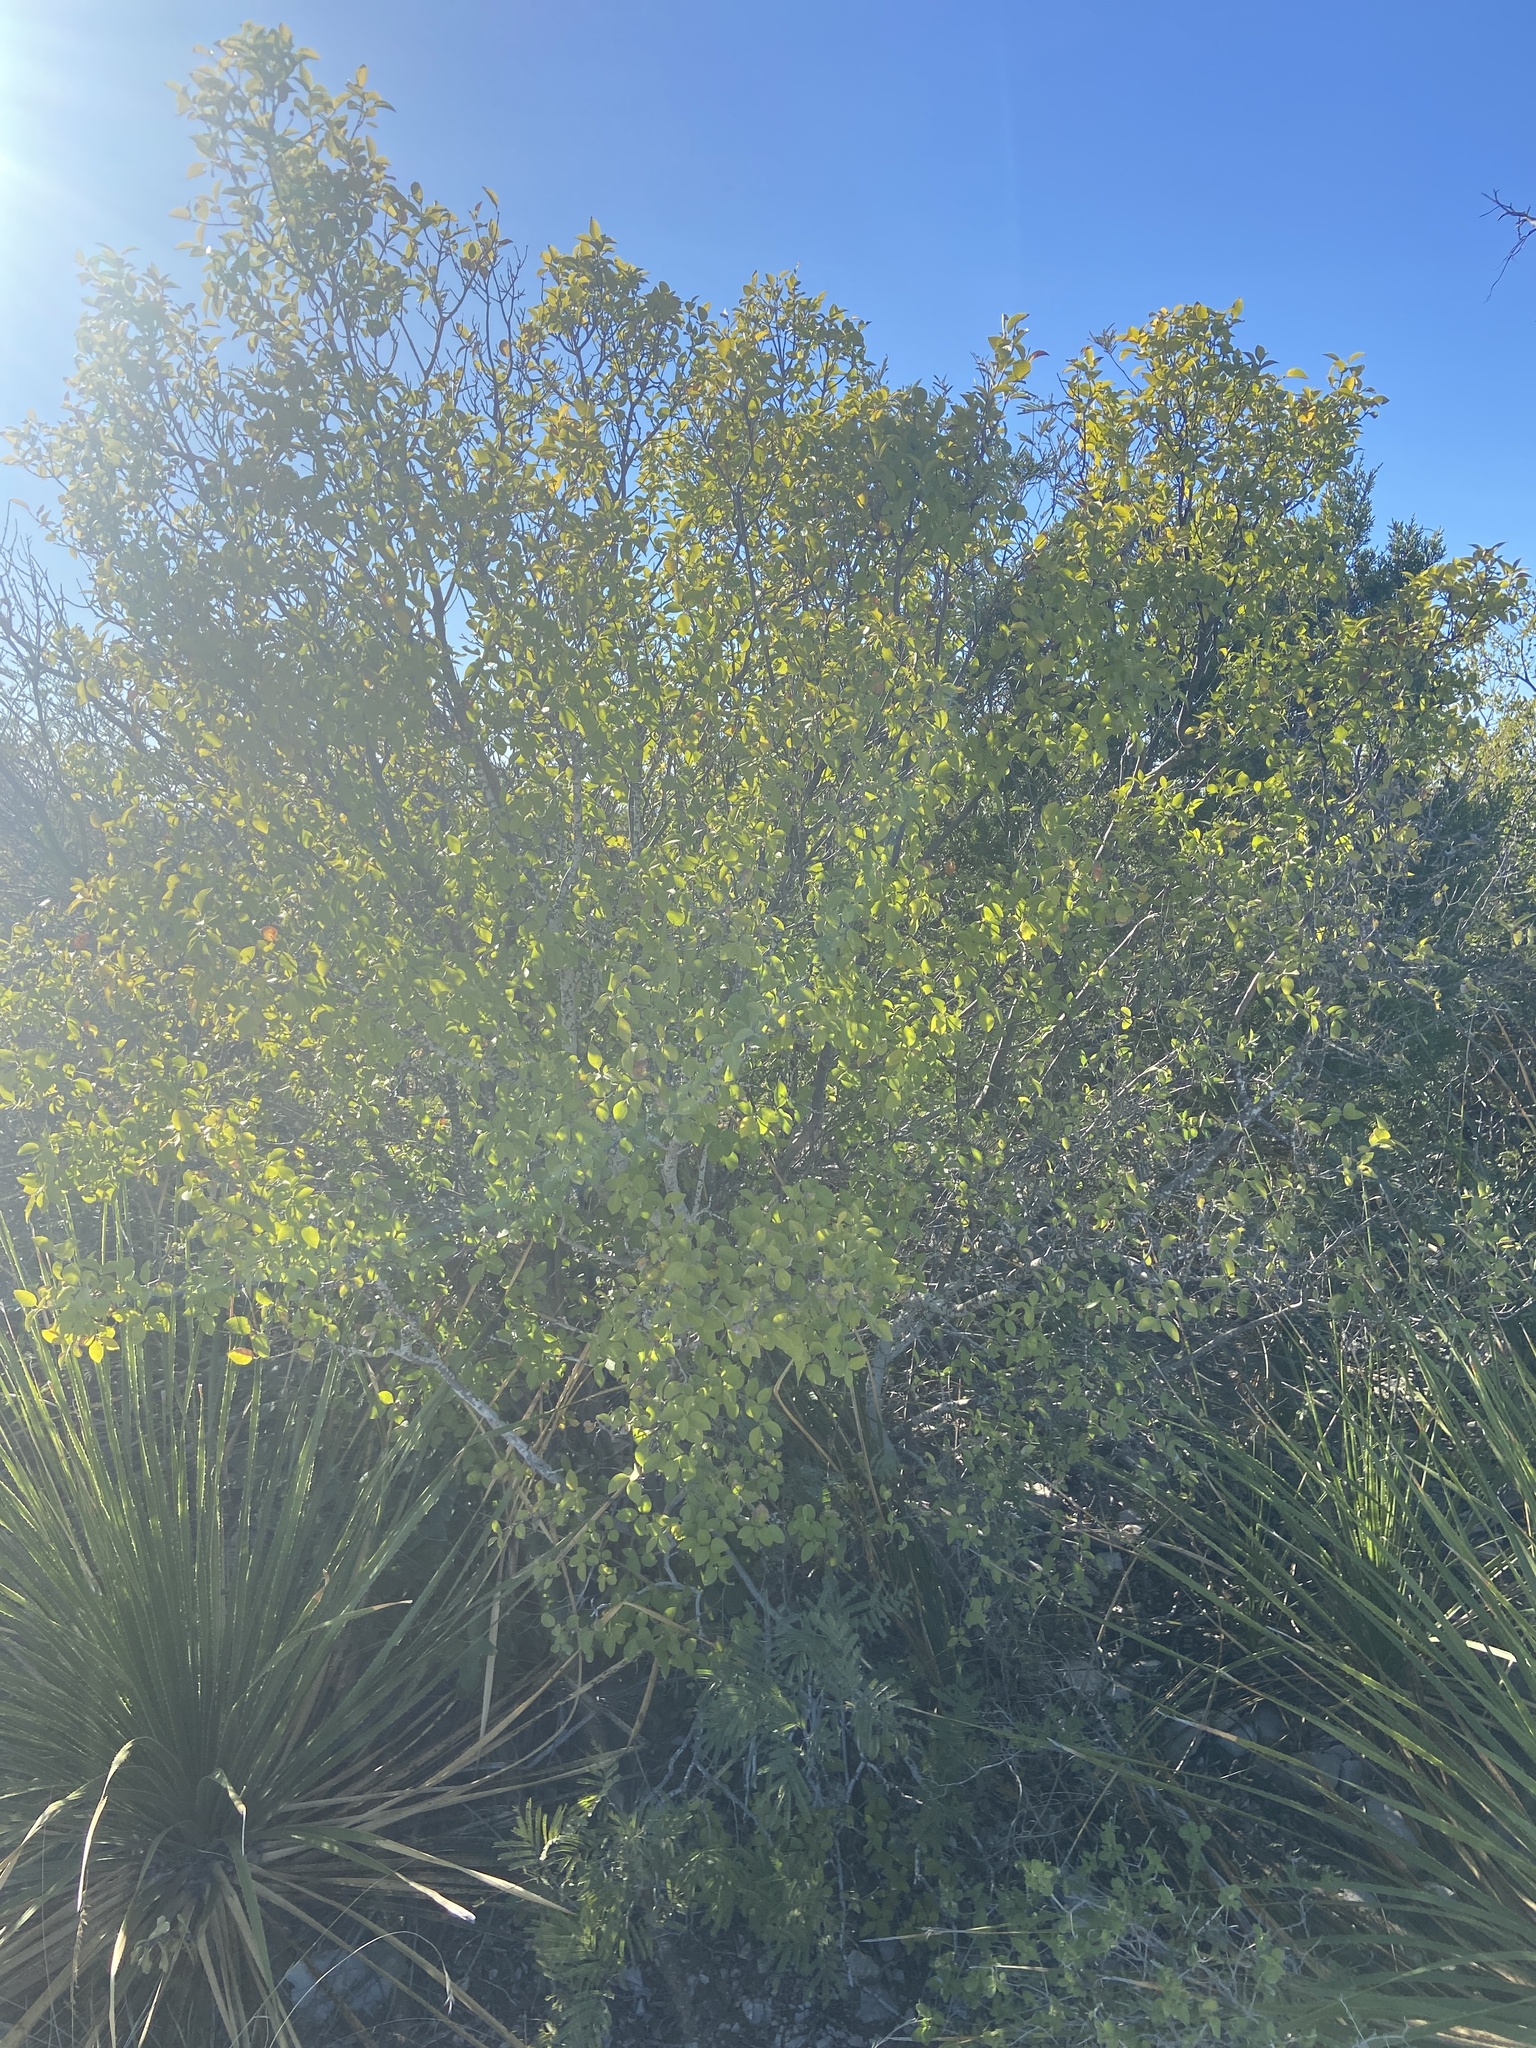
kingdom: Plantae
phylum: Tracheophyta
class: Magnoliopsida
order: Lamiales
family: Oleaceae
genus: Forestiera
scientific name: Forestiera reticulata
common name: Netleaf swamp-privet
